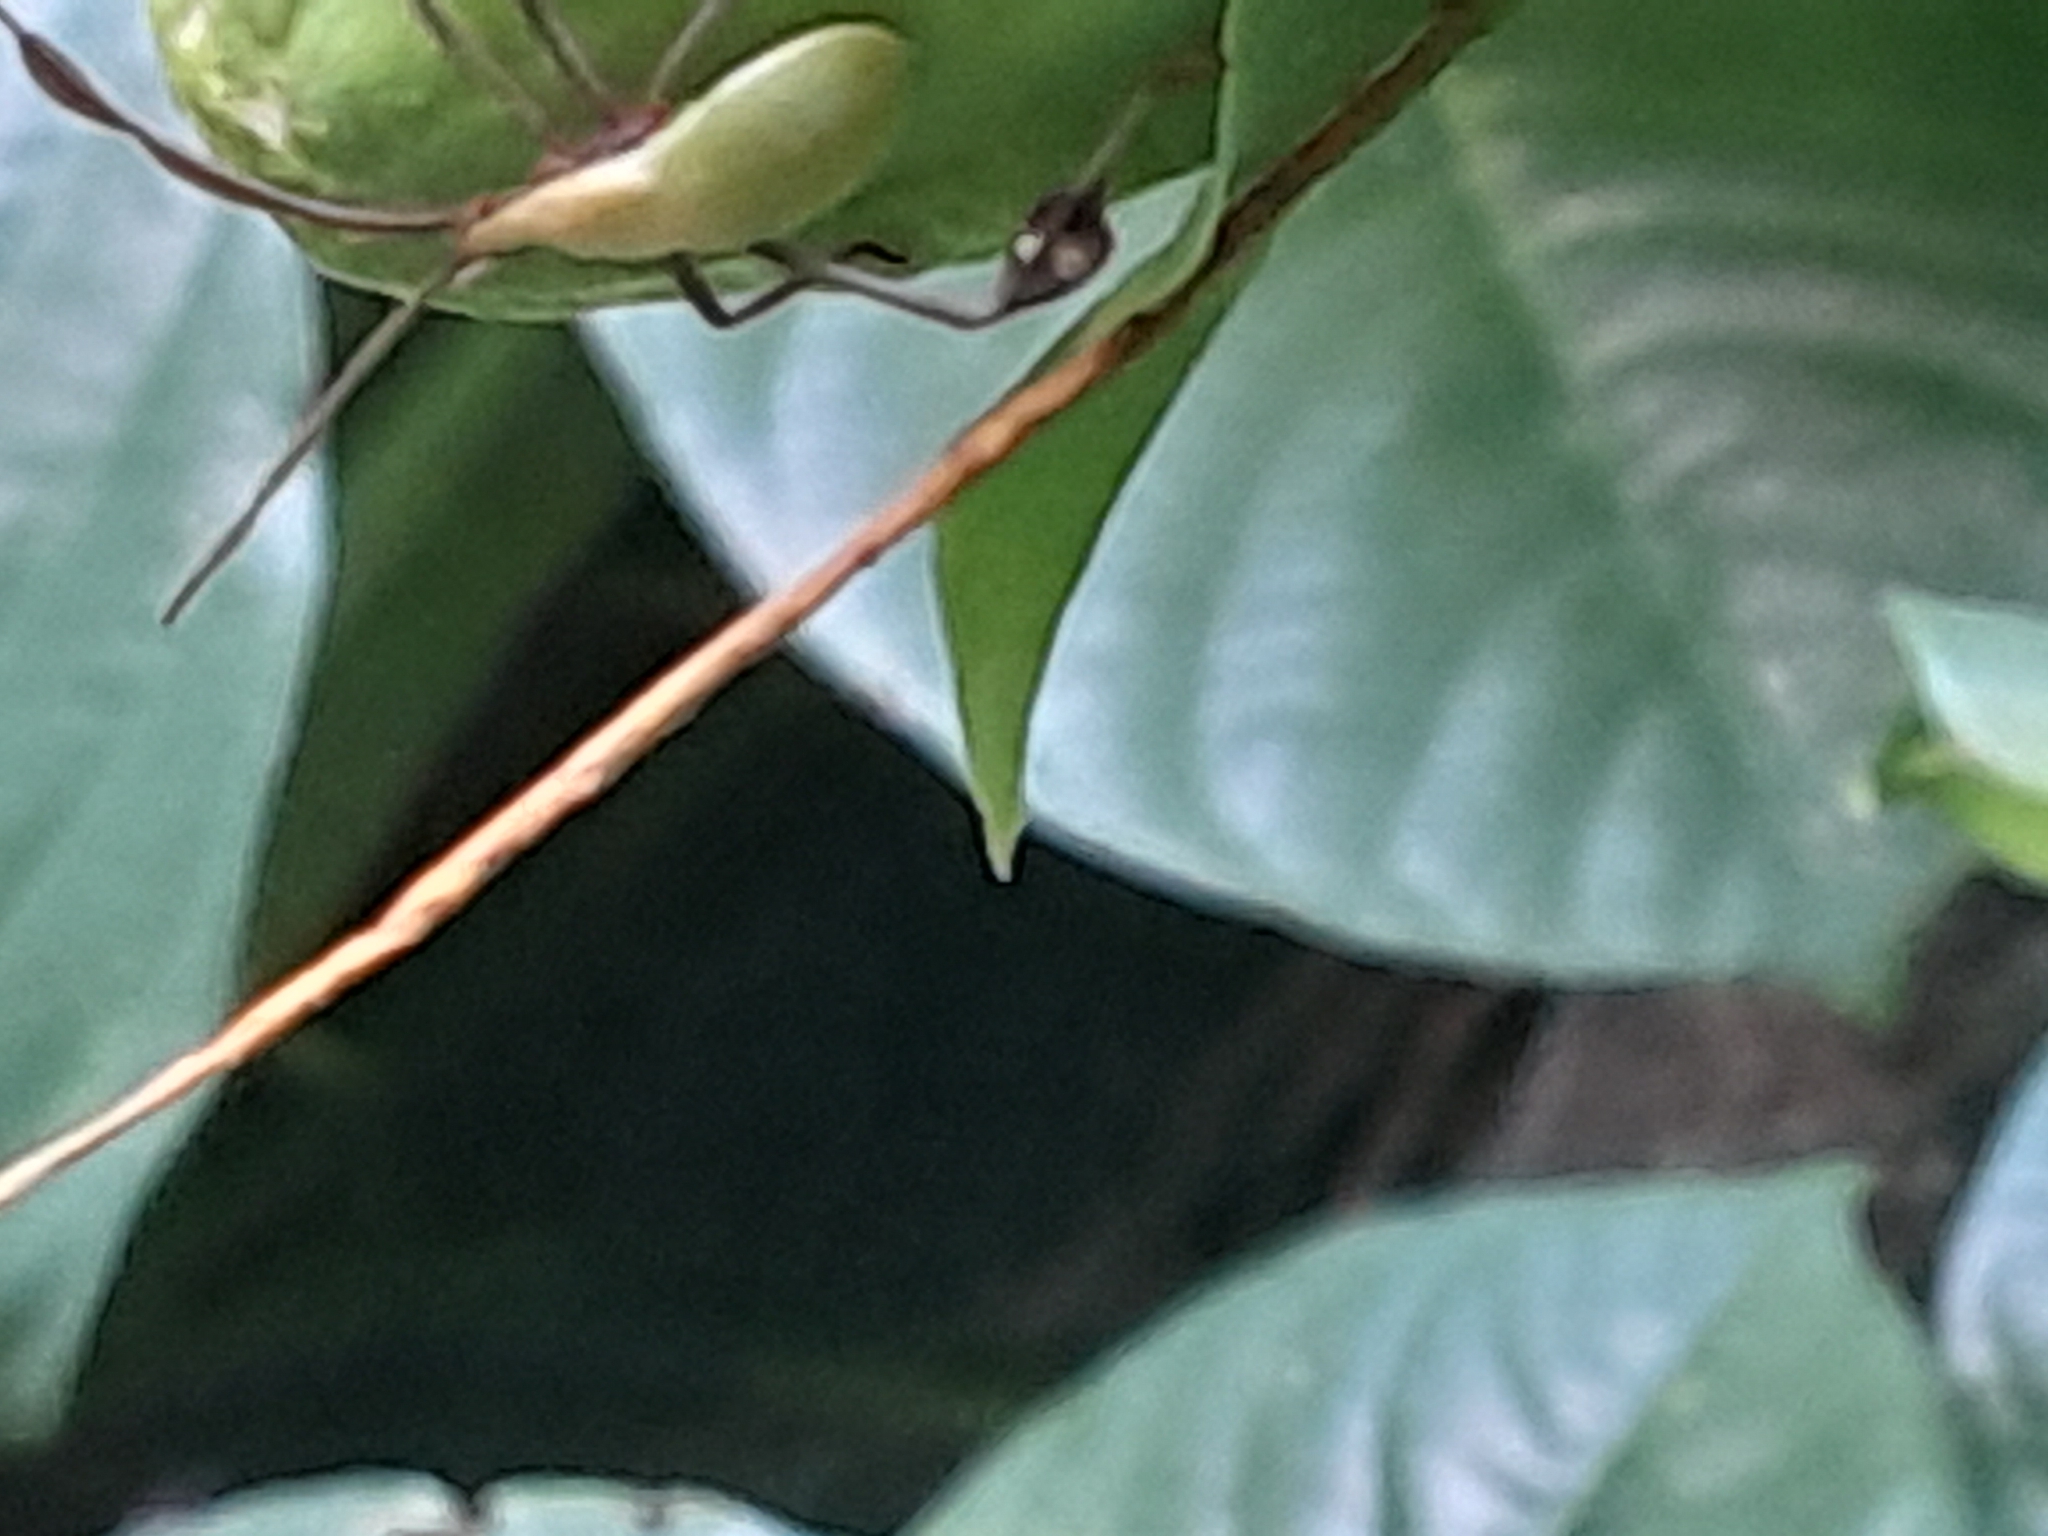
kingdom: Animalia
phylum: Arthropoda
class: Insecta
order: Hemiptera
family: Coreidae
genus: Bitta
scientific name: Bitta
